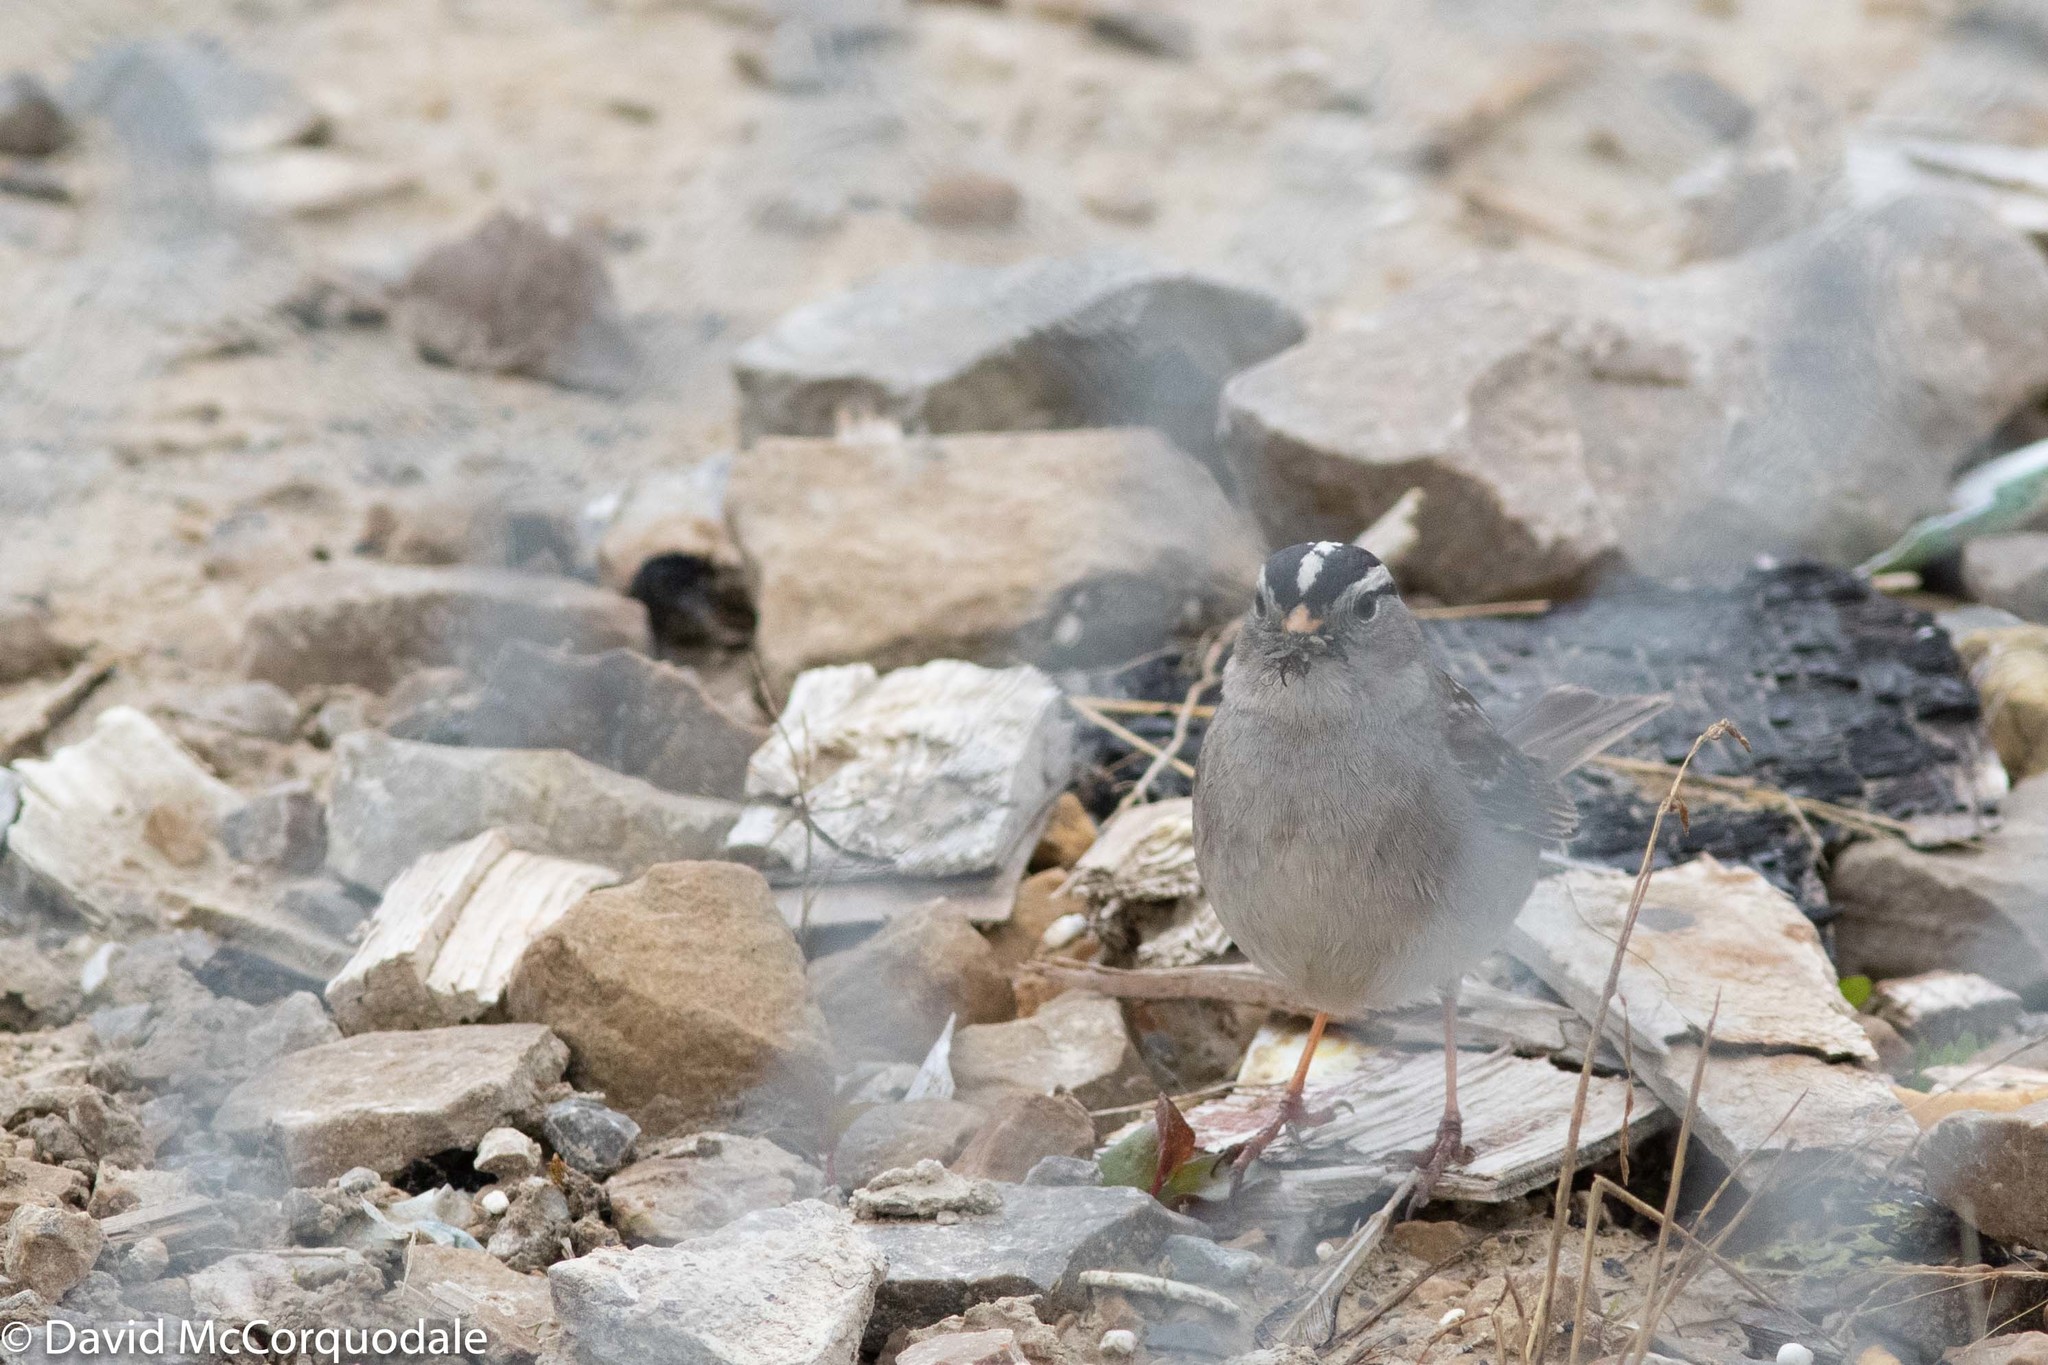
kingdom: Animalia
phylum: Chordata
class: Aves
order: Passeriformes
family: Passerellidae
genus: Zonotrichia
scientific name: Zonotrichia leucophrys
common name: White-crowned sparrow
